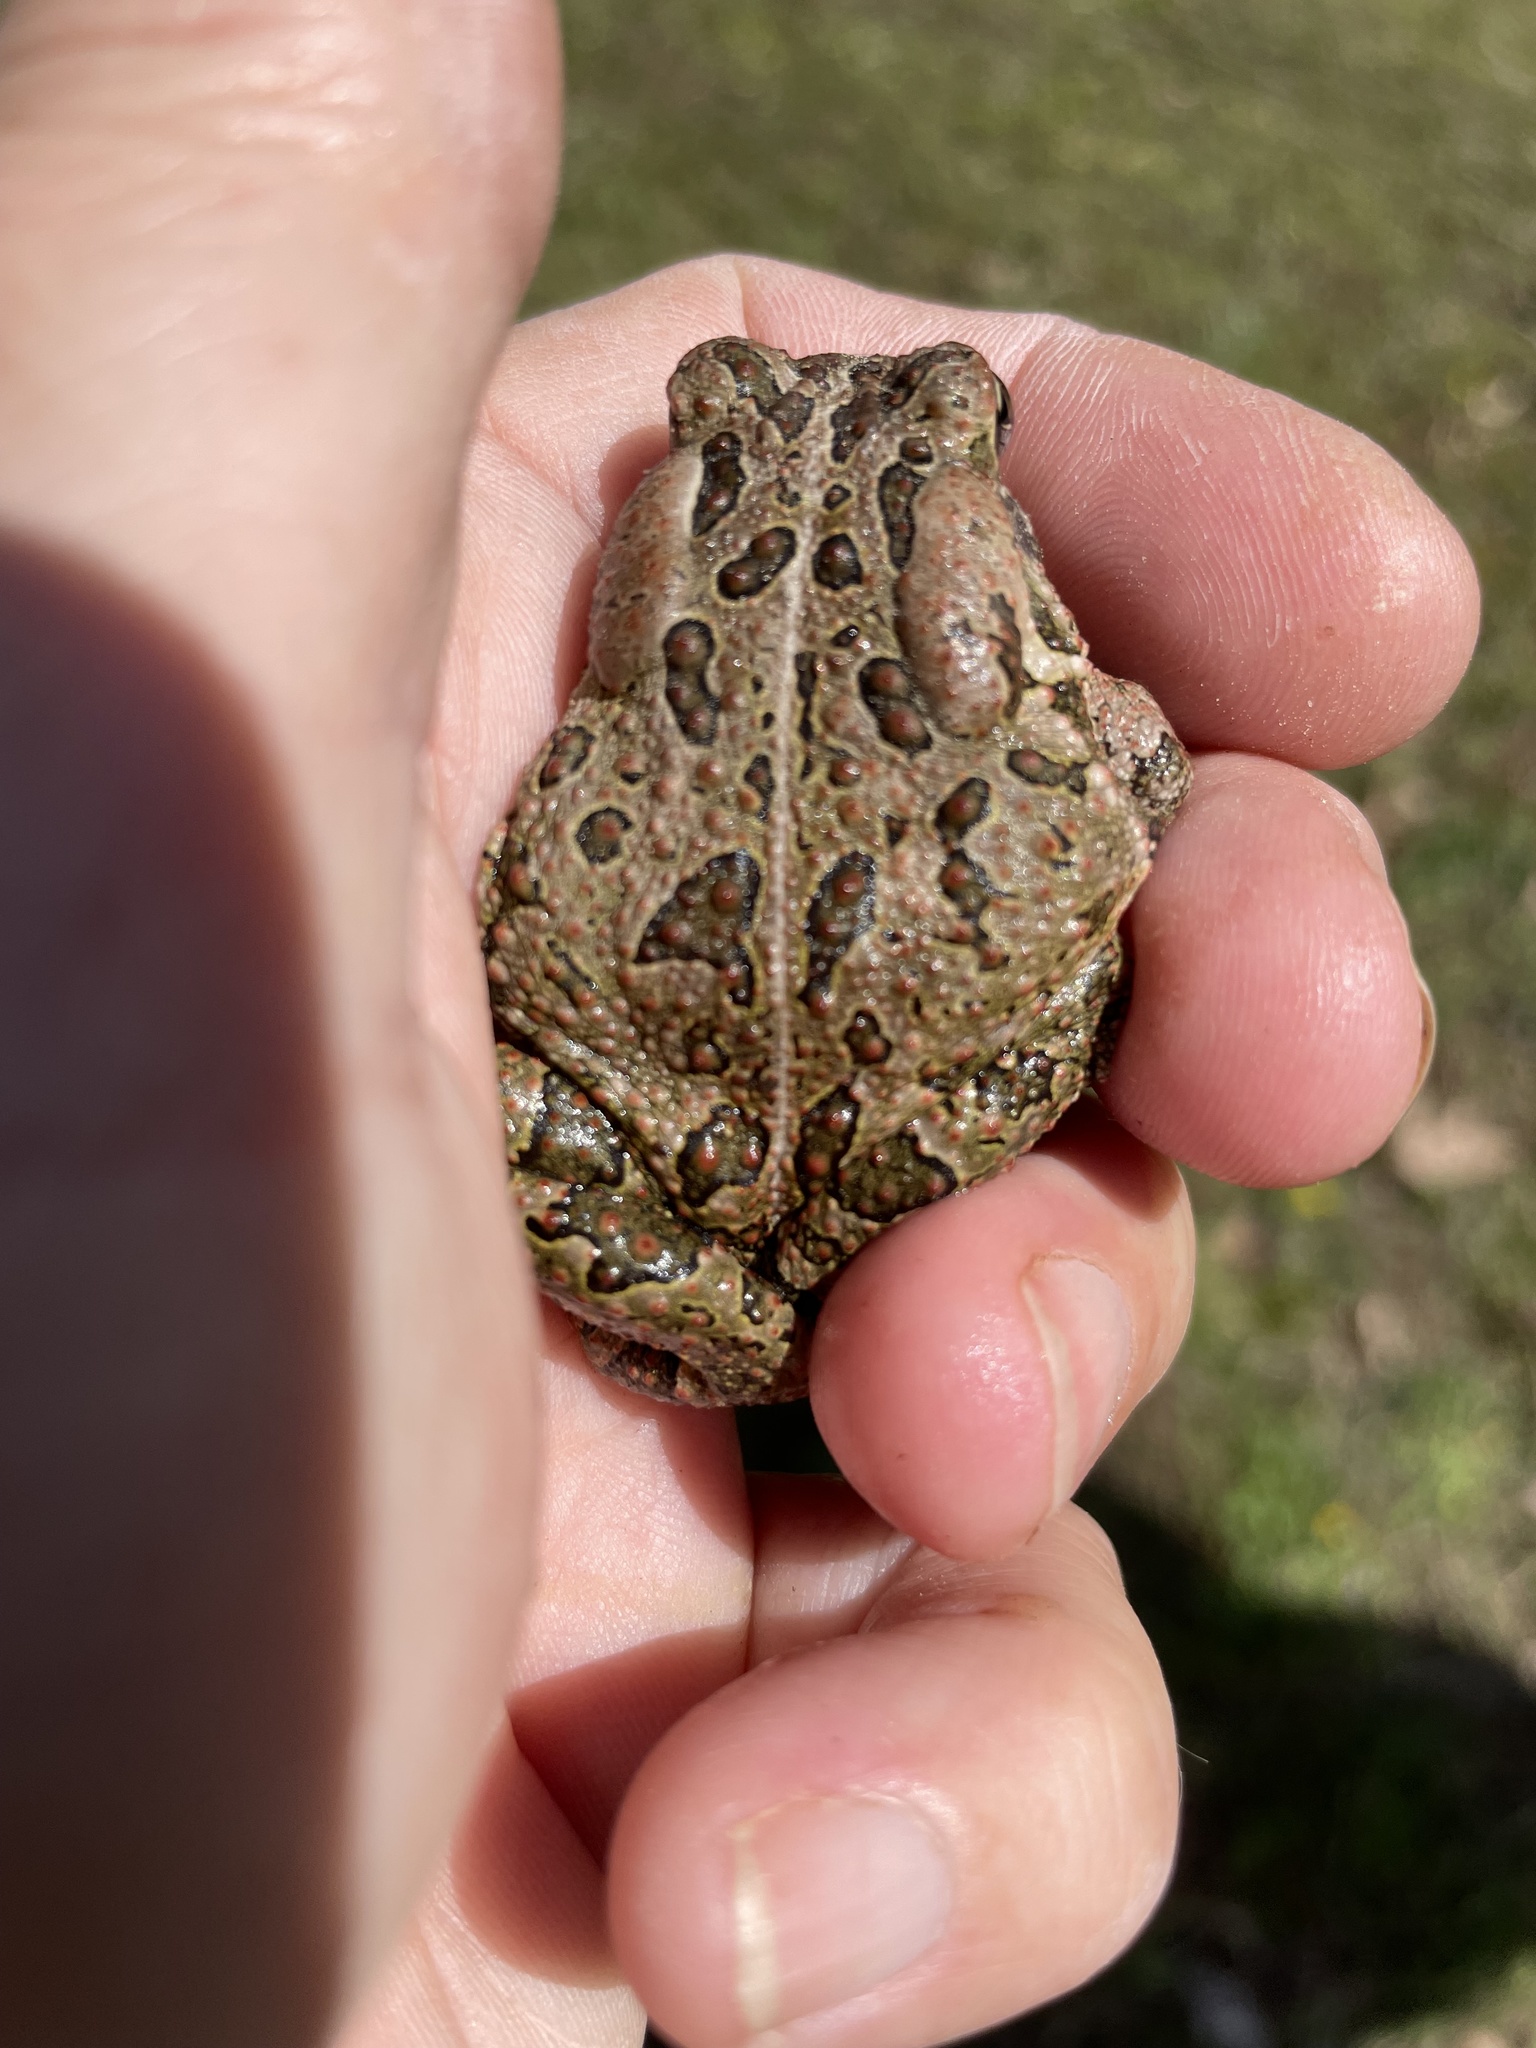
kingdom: Animalia
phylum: Chordata
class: Amphibia
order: Anura
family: Bufonidae
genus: Anaxyrus
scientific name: Anaxyrus fowleri
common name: Fowler's toad
